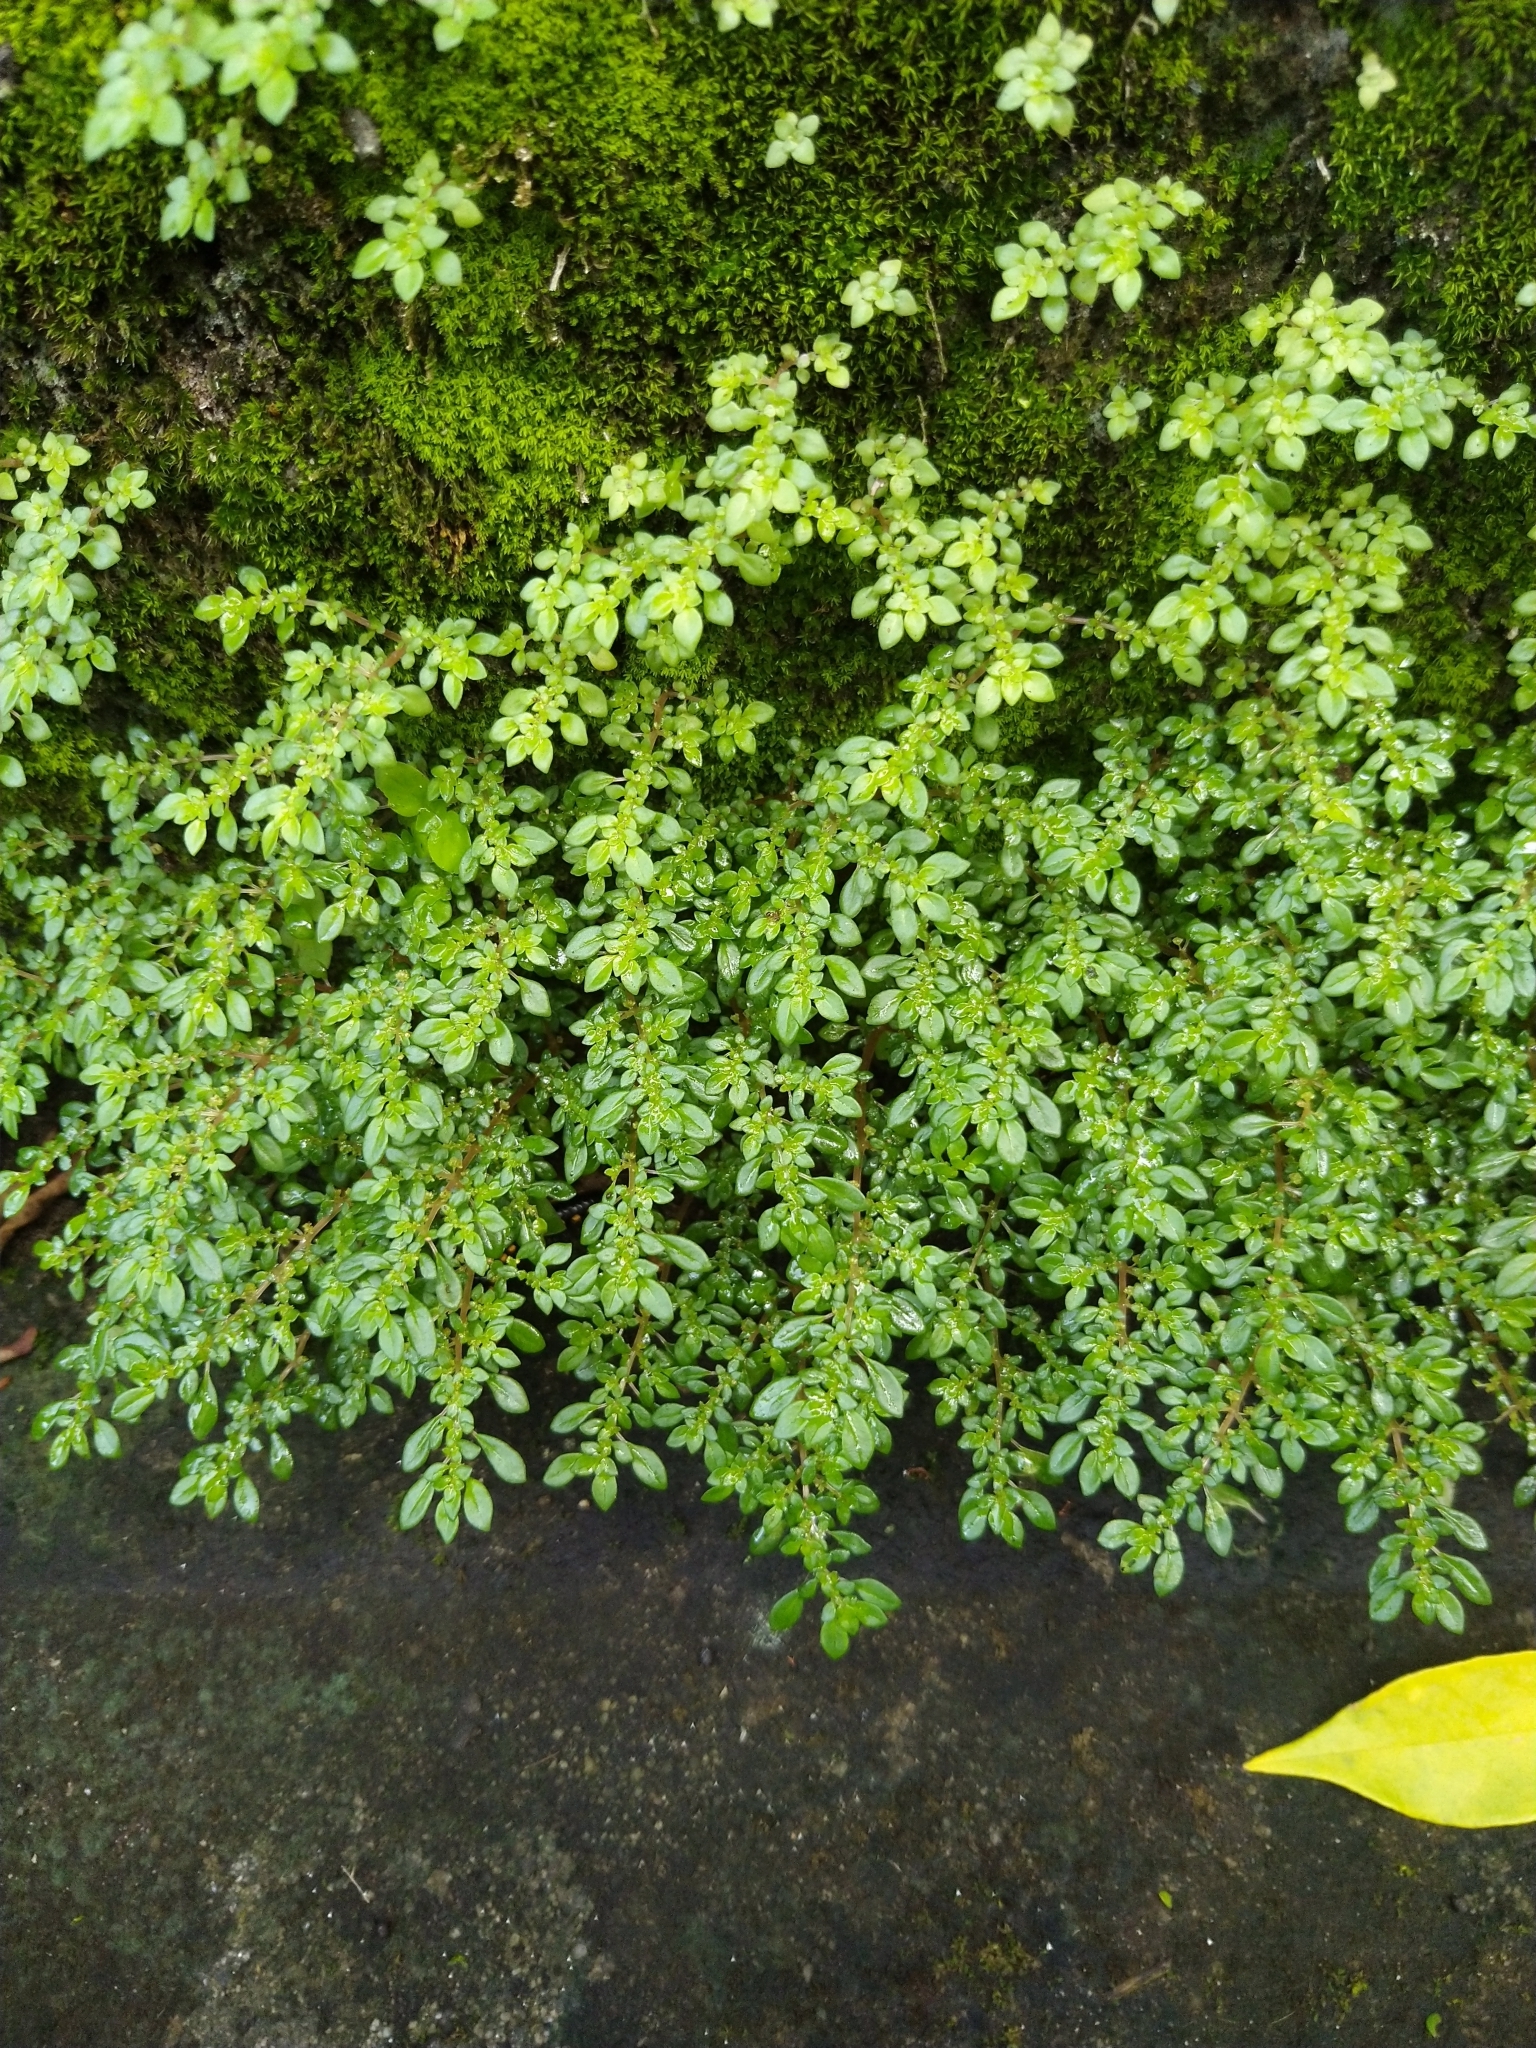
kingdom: Plantae
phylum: Tracheophyta
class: Magnoliopsida
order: Rosales
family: Urticaceae
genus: Pilea
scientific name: Pilea microphylla
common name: Artillery-plant
